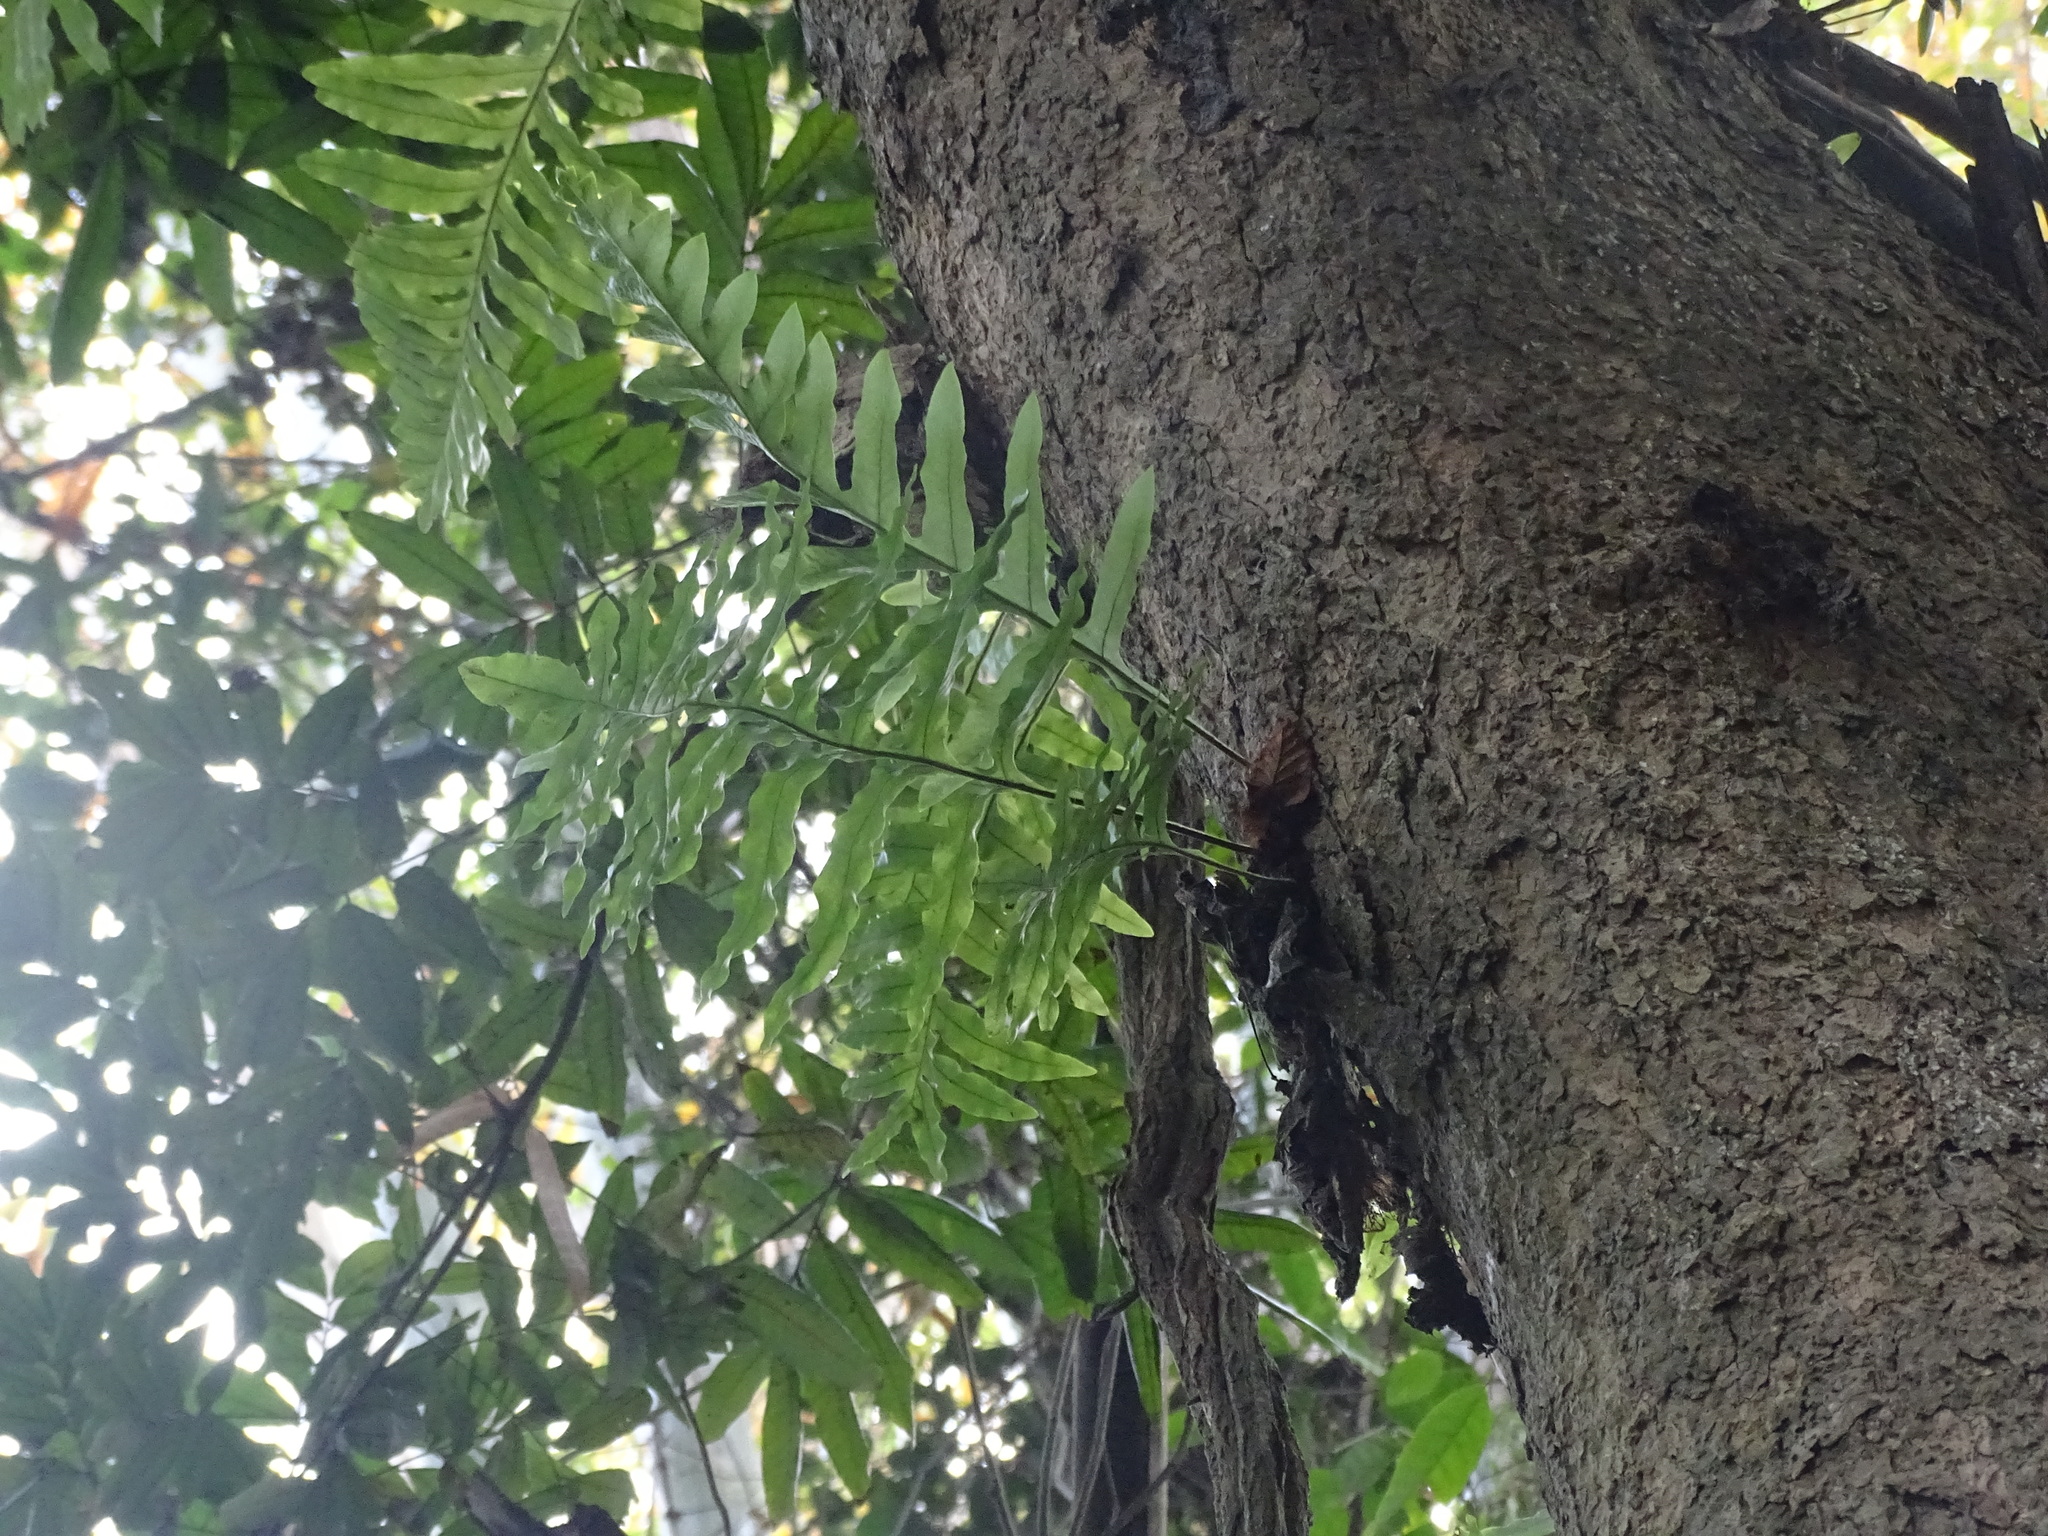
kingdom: Plantae
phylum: Tracheophyta
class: Polypodiopsida
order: Polypodiales
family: Polypodiaceae
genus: Drynaria
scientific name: Drynaria roosii
